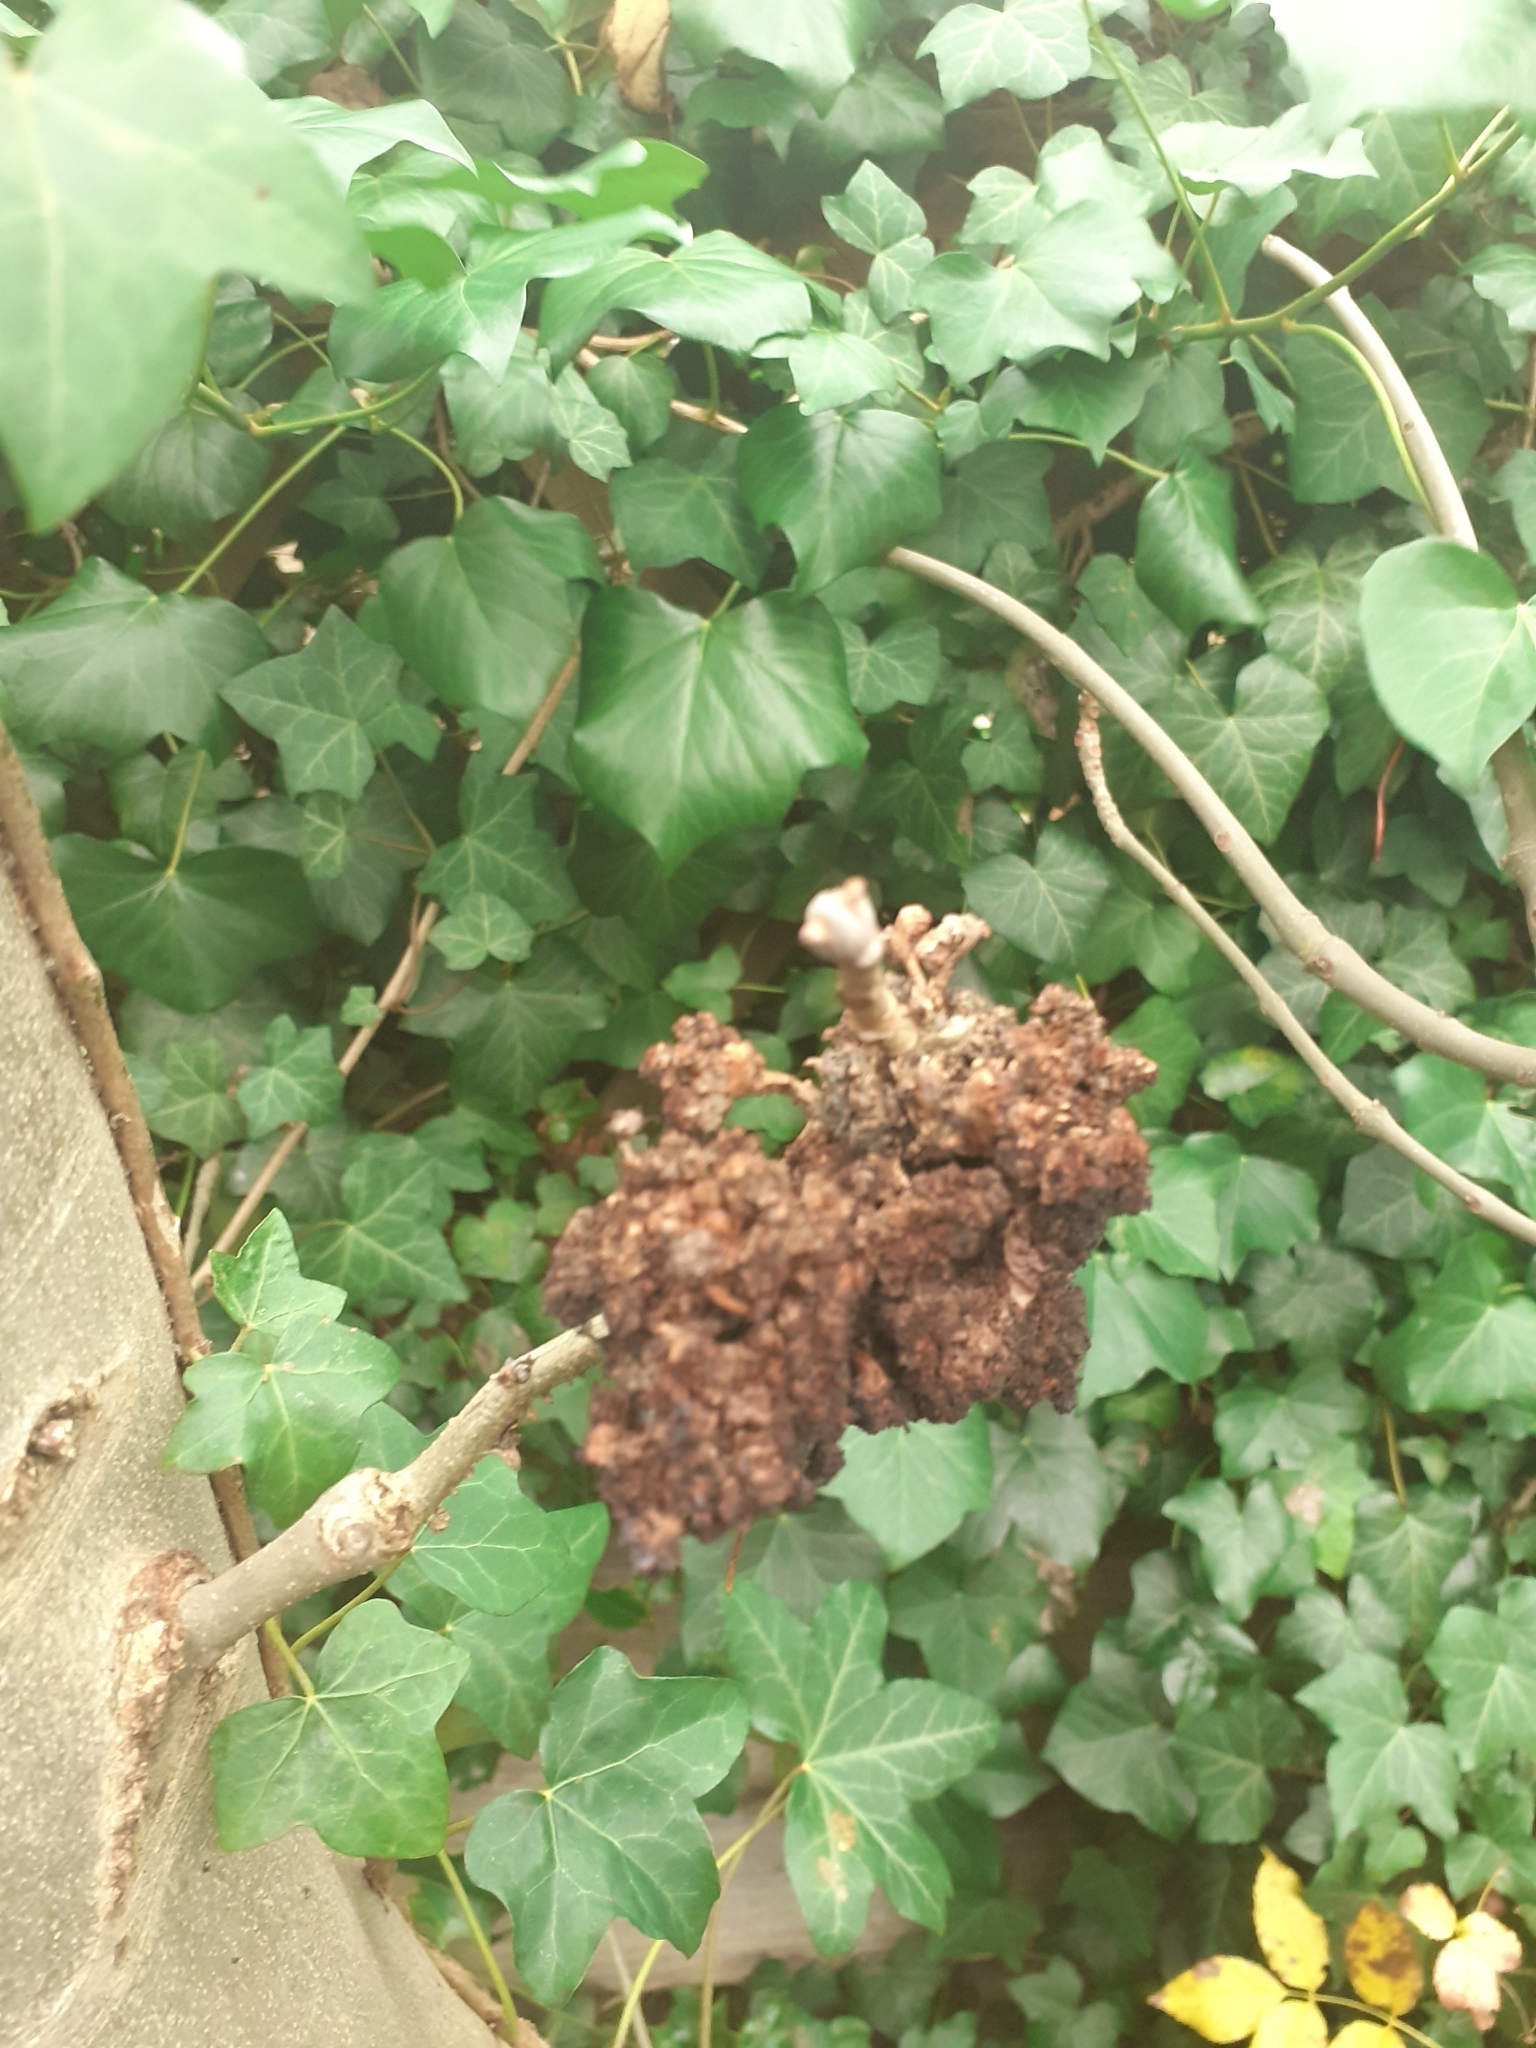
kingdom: Animalia
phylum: Arthropoda
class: Arachnida
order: Trombidiformes
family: Eriophyidae
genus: Aceria
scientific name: Aceria fraxinivora
